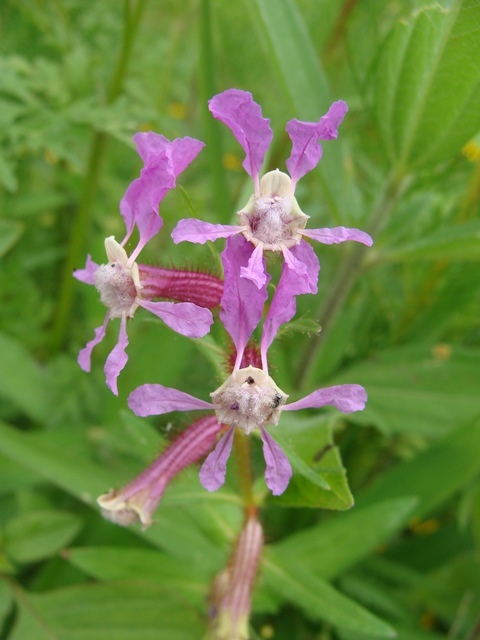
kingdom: Plantae
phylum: Tracheophyta
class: Magnoliopsida
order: Myrtales
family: Lythraceae
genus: Cuphea
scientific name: Cuphea procumbens
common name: Creeping waxweed
